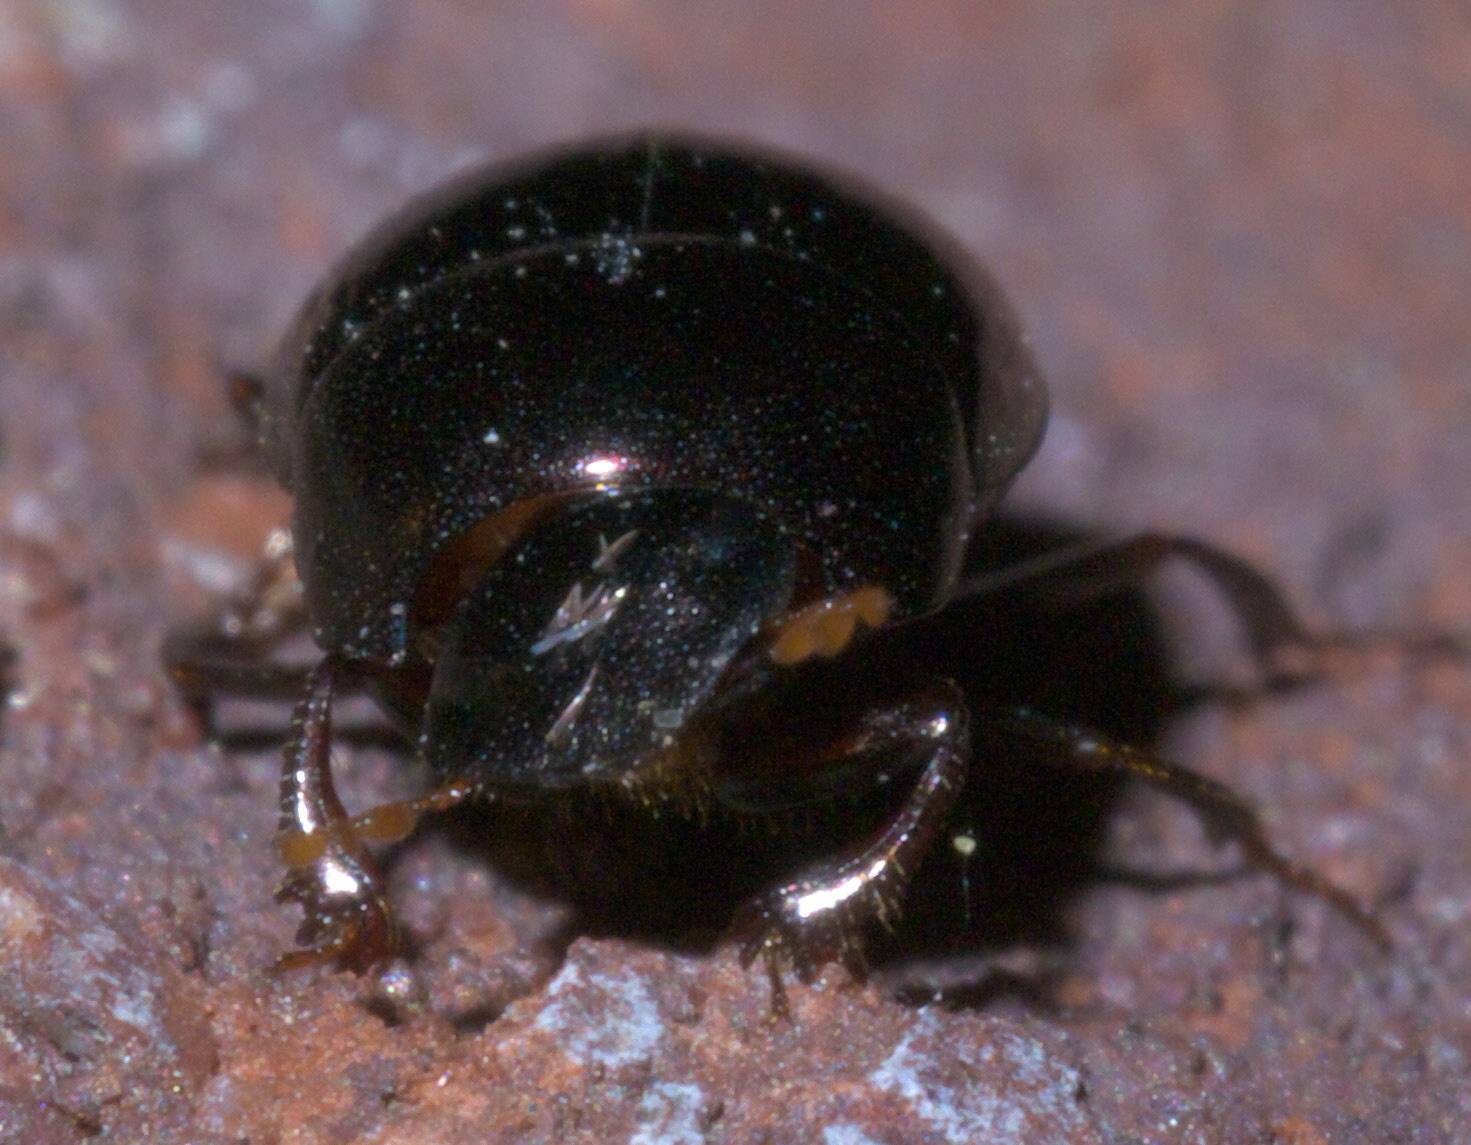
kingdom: Animalia
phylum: Arthropoda
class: Insecta
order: Coleoptera
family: Scarabaeidae
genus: Pseudocanthon
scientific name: Pseudocanthon perplexus
